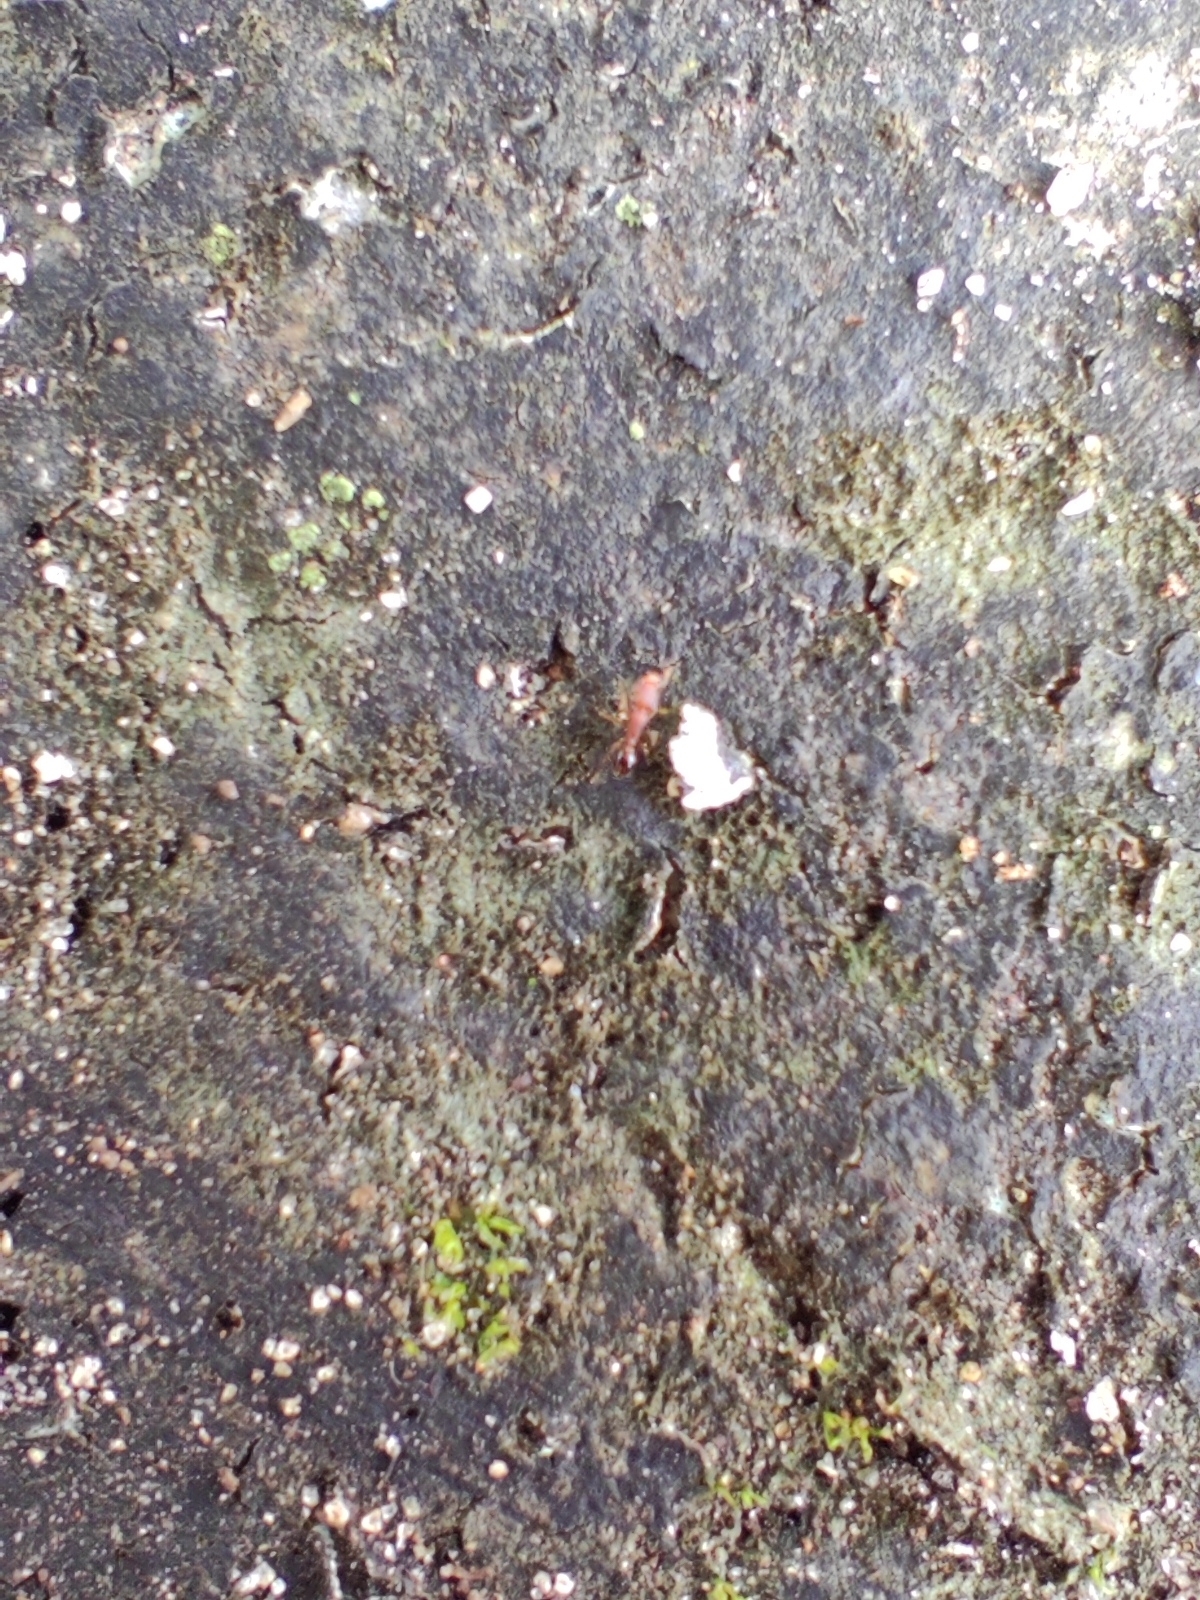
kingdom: Animalia
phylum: Arthropoda
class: Insecta
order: Hymenoptera
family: Formicidae
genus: Pheidole
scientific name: Pheidole parva
